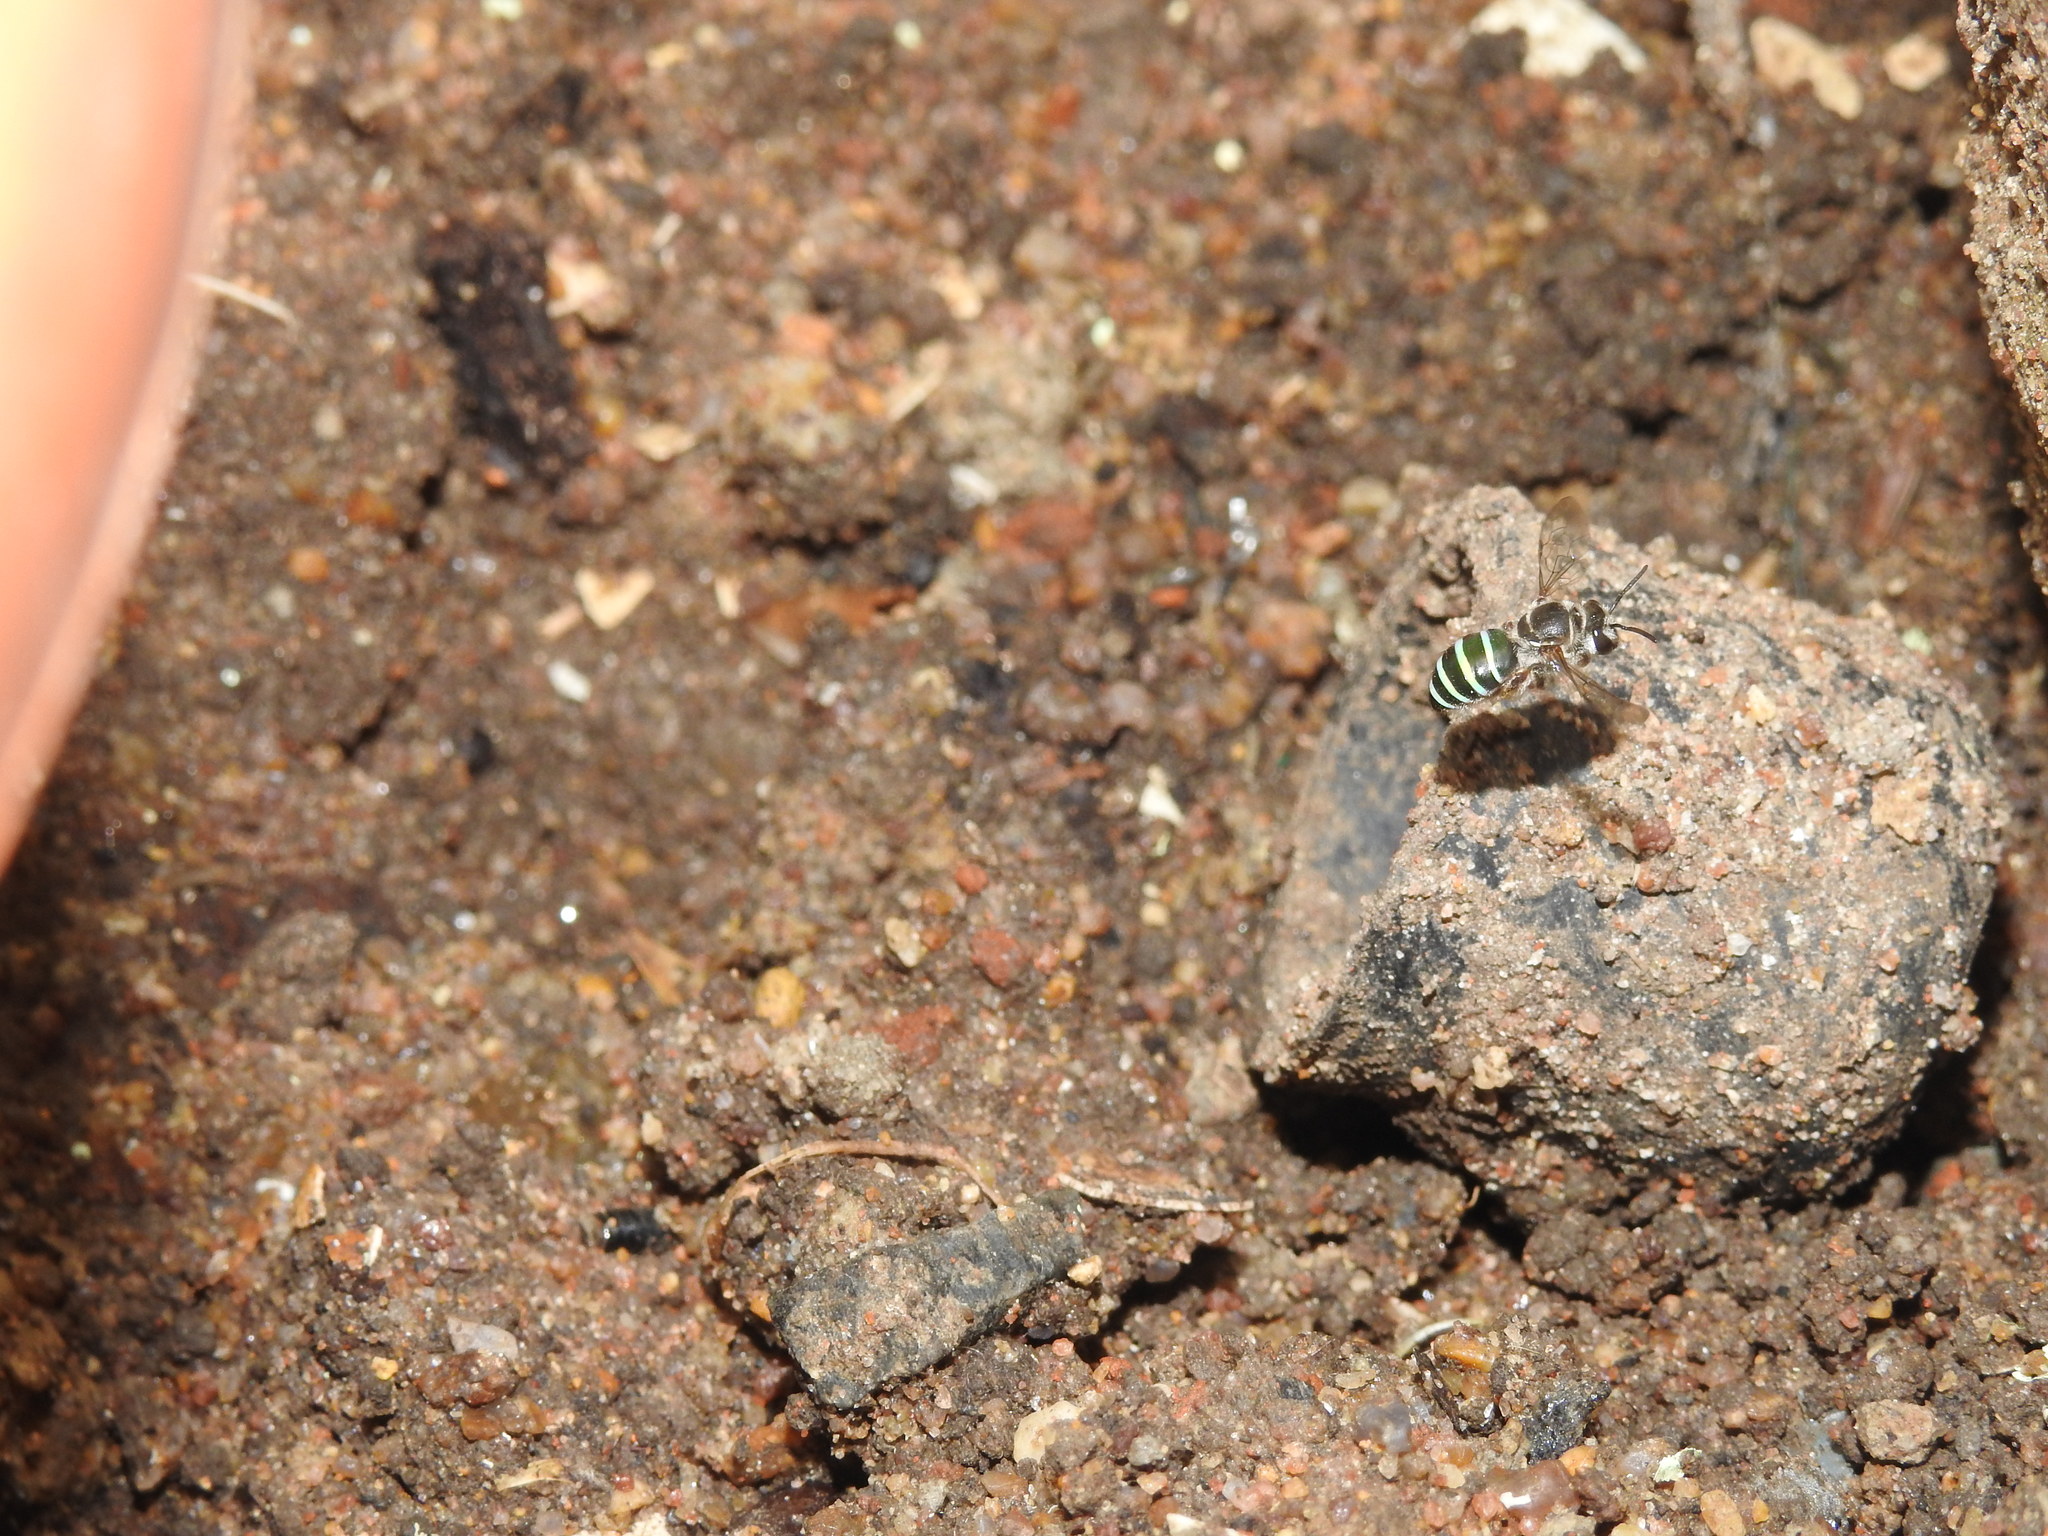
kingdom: Animalia
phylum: Arthropoda
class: Insecta
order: Hymenoptera
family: Halictidae
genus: Nomia
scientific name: Nomia westwoodi
